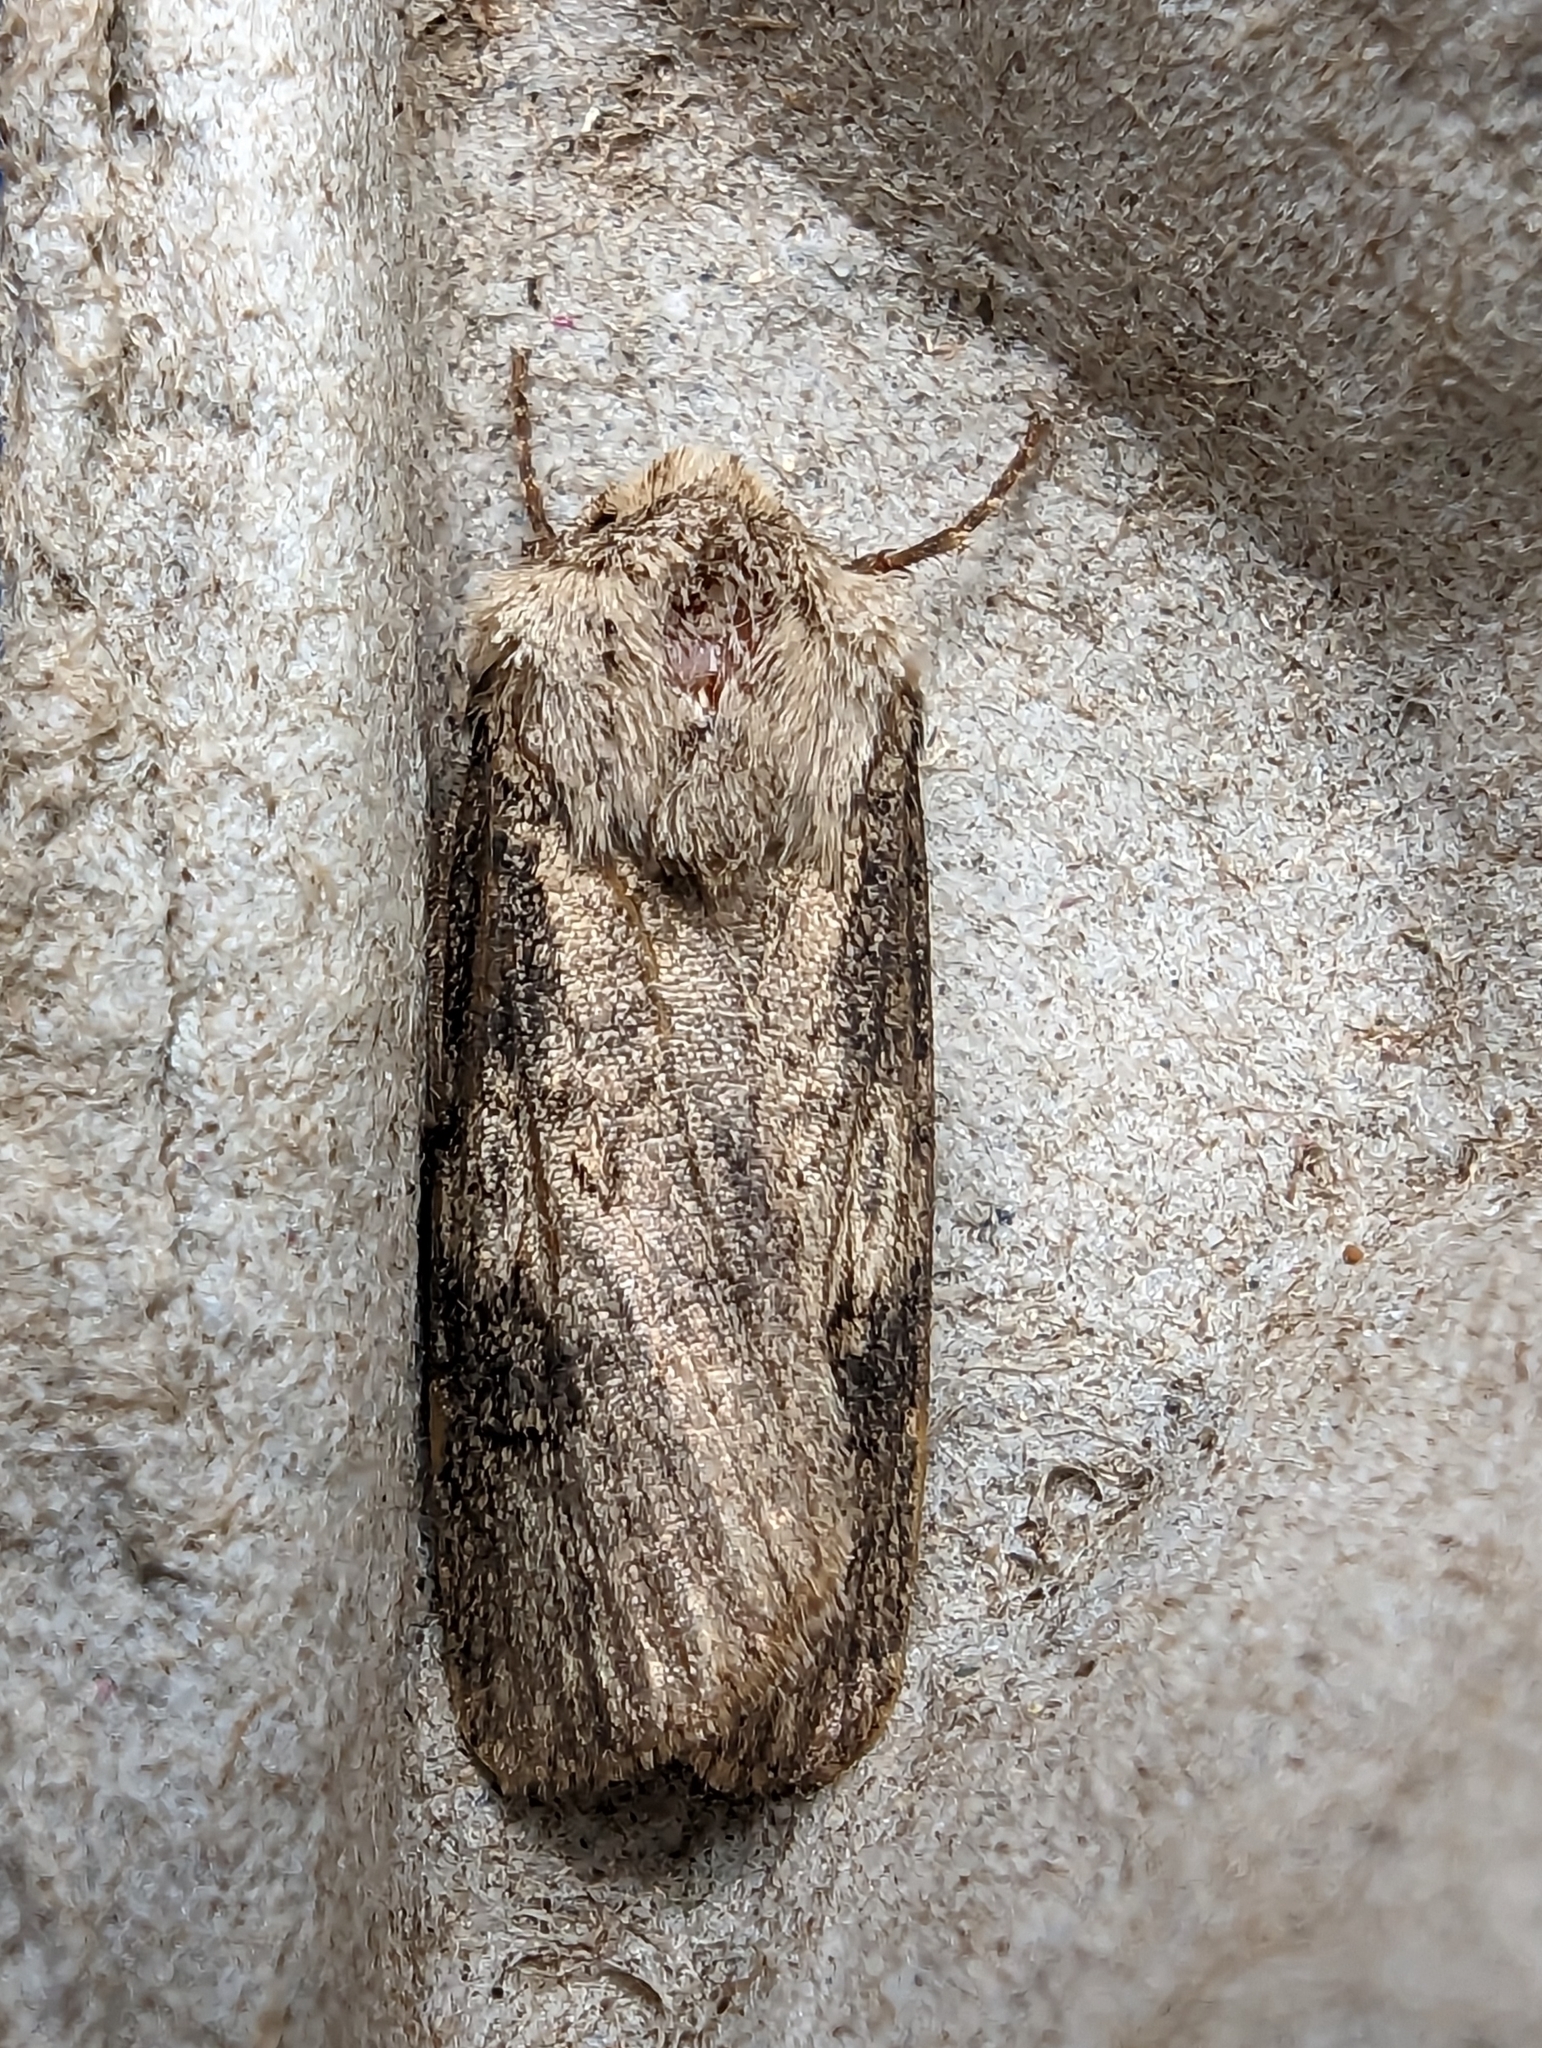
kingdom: Animalia
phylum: Arthropoda
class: Insecta
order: Lepidoptera
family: Noctuidae
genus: Agrotis
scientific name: Agrotis puta
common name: Shuttle-shaped dart
